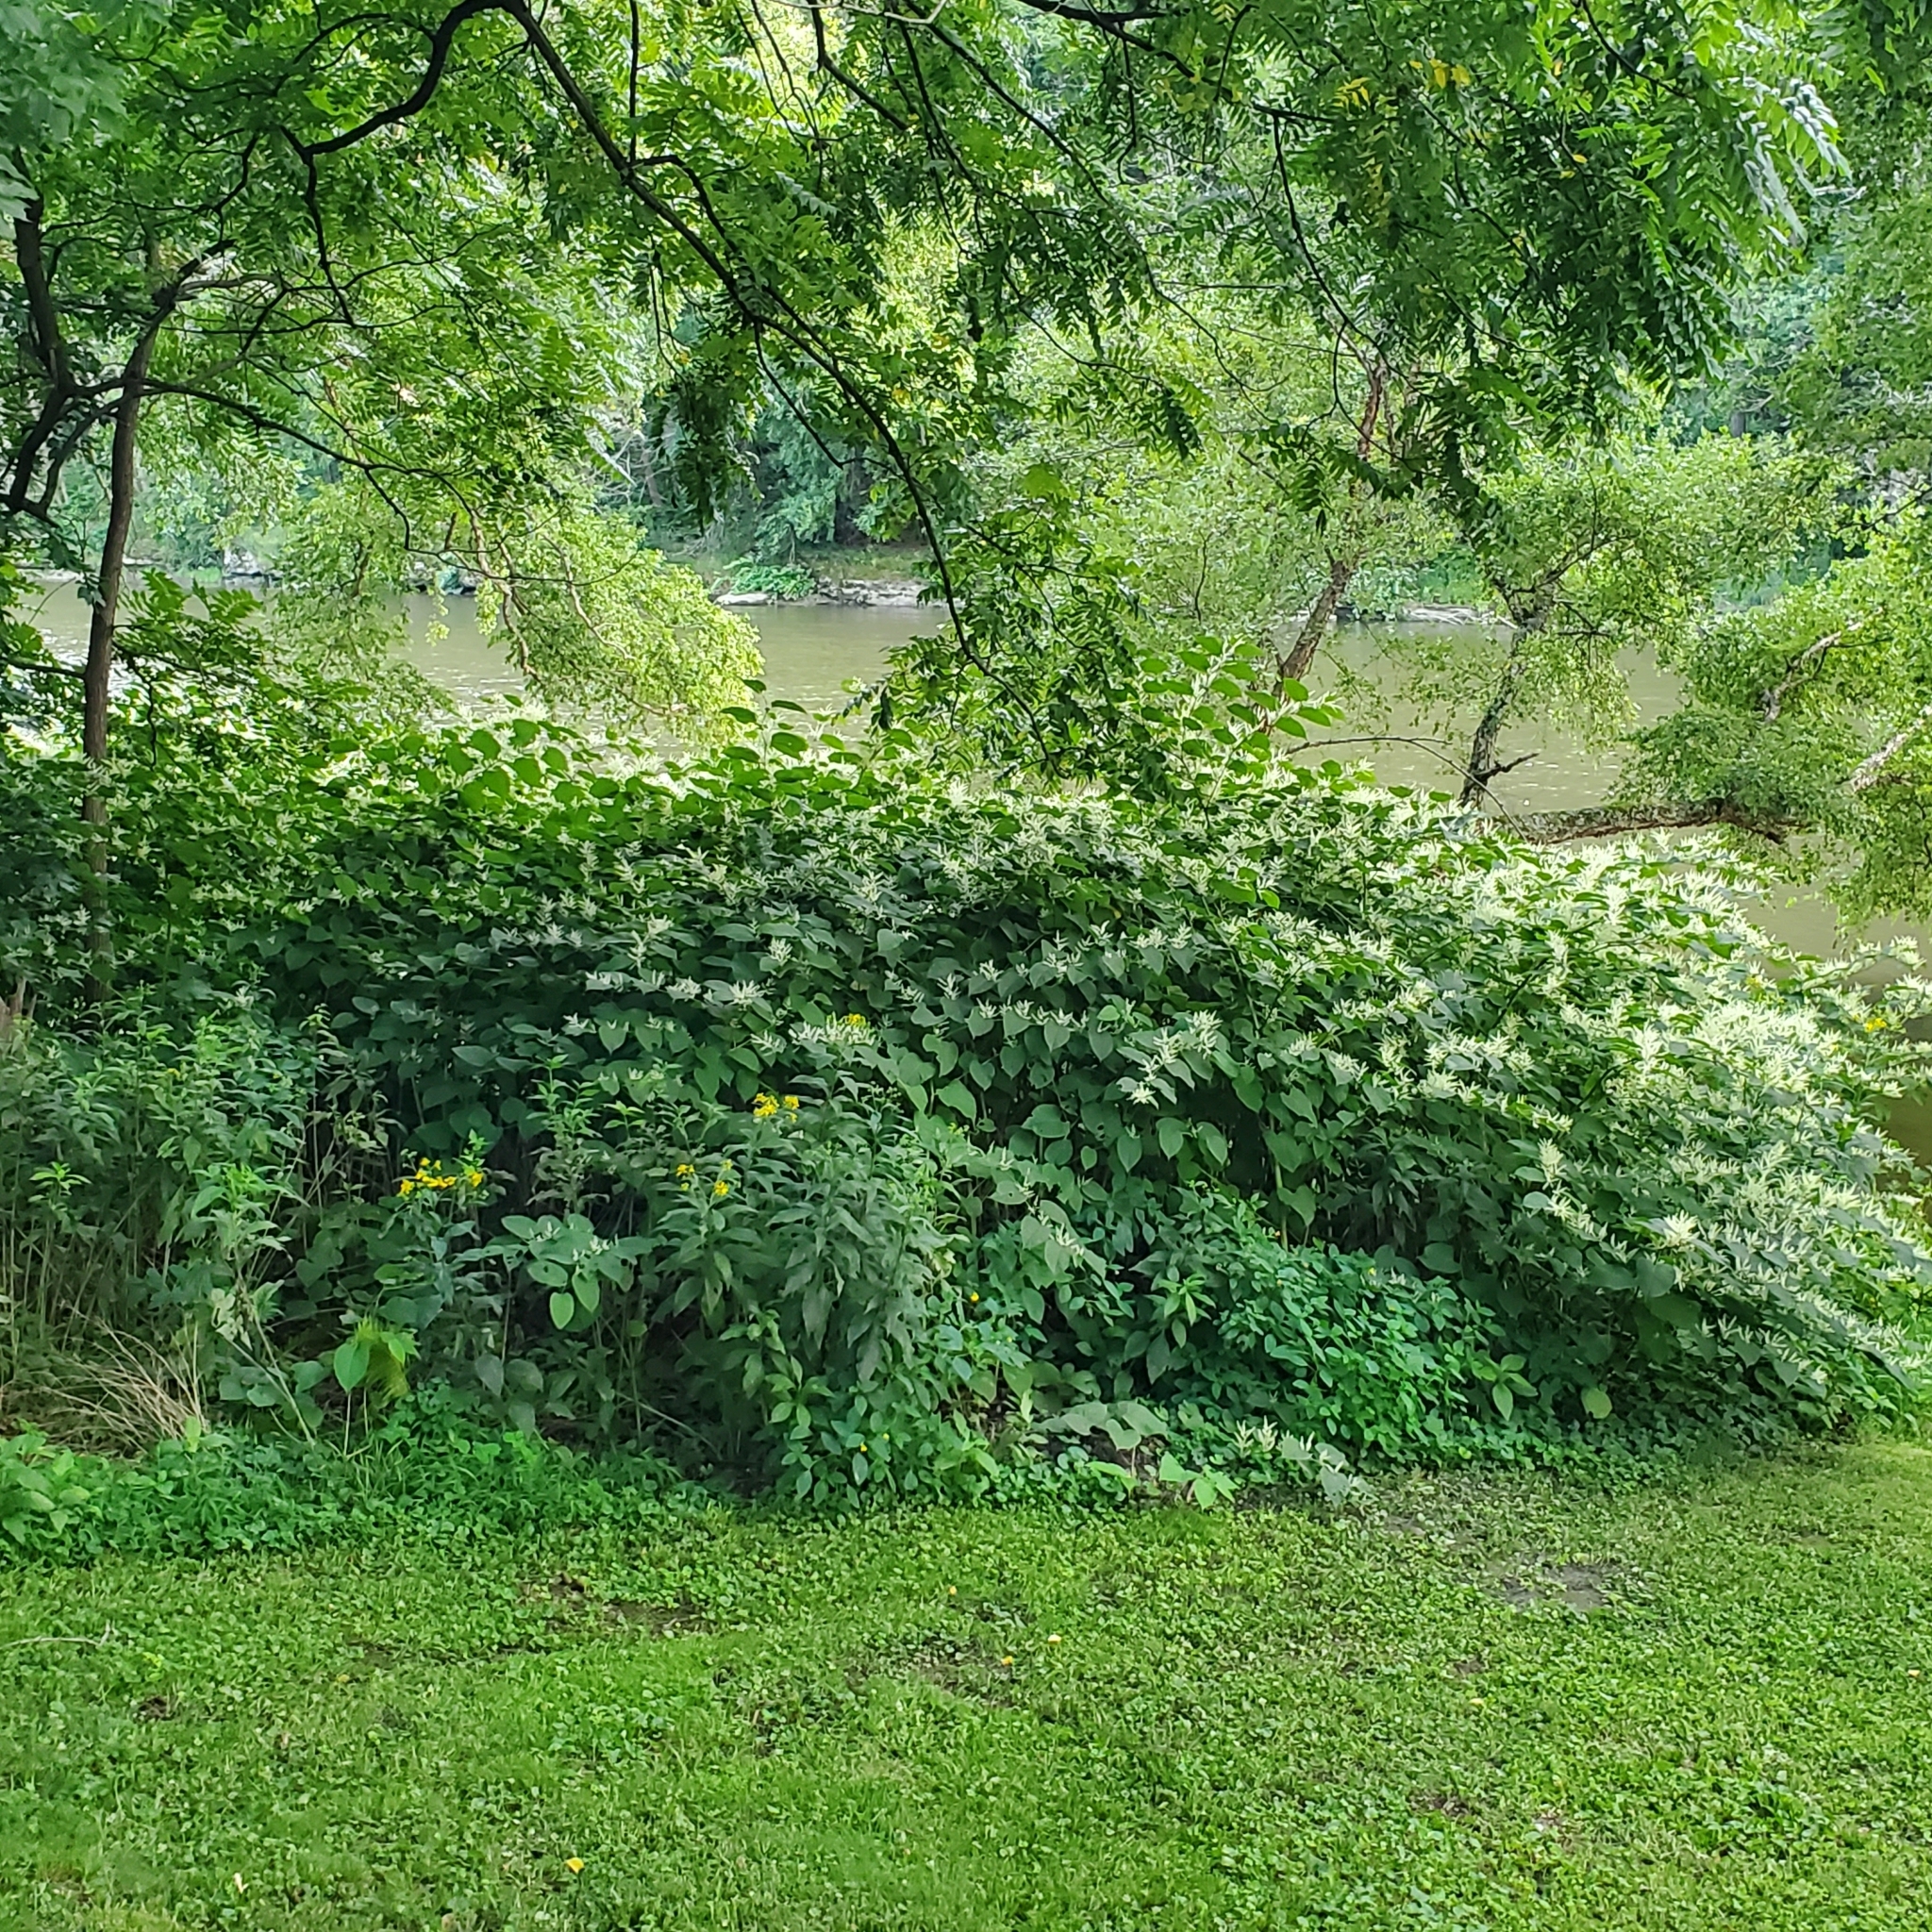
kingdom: Plantae
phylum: Tracheophyta
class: Magnoliopsida
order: Caryophyllales
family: Polygonaceae
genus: Reynoutria
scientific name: Reynoutria japonica
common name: Japanese knotweed
